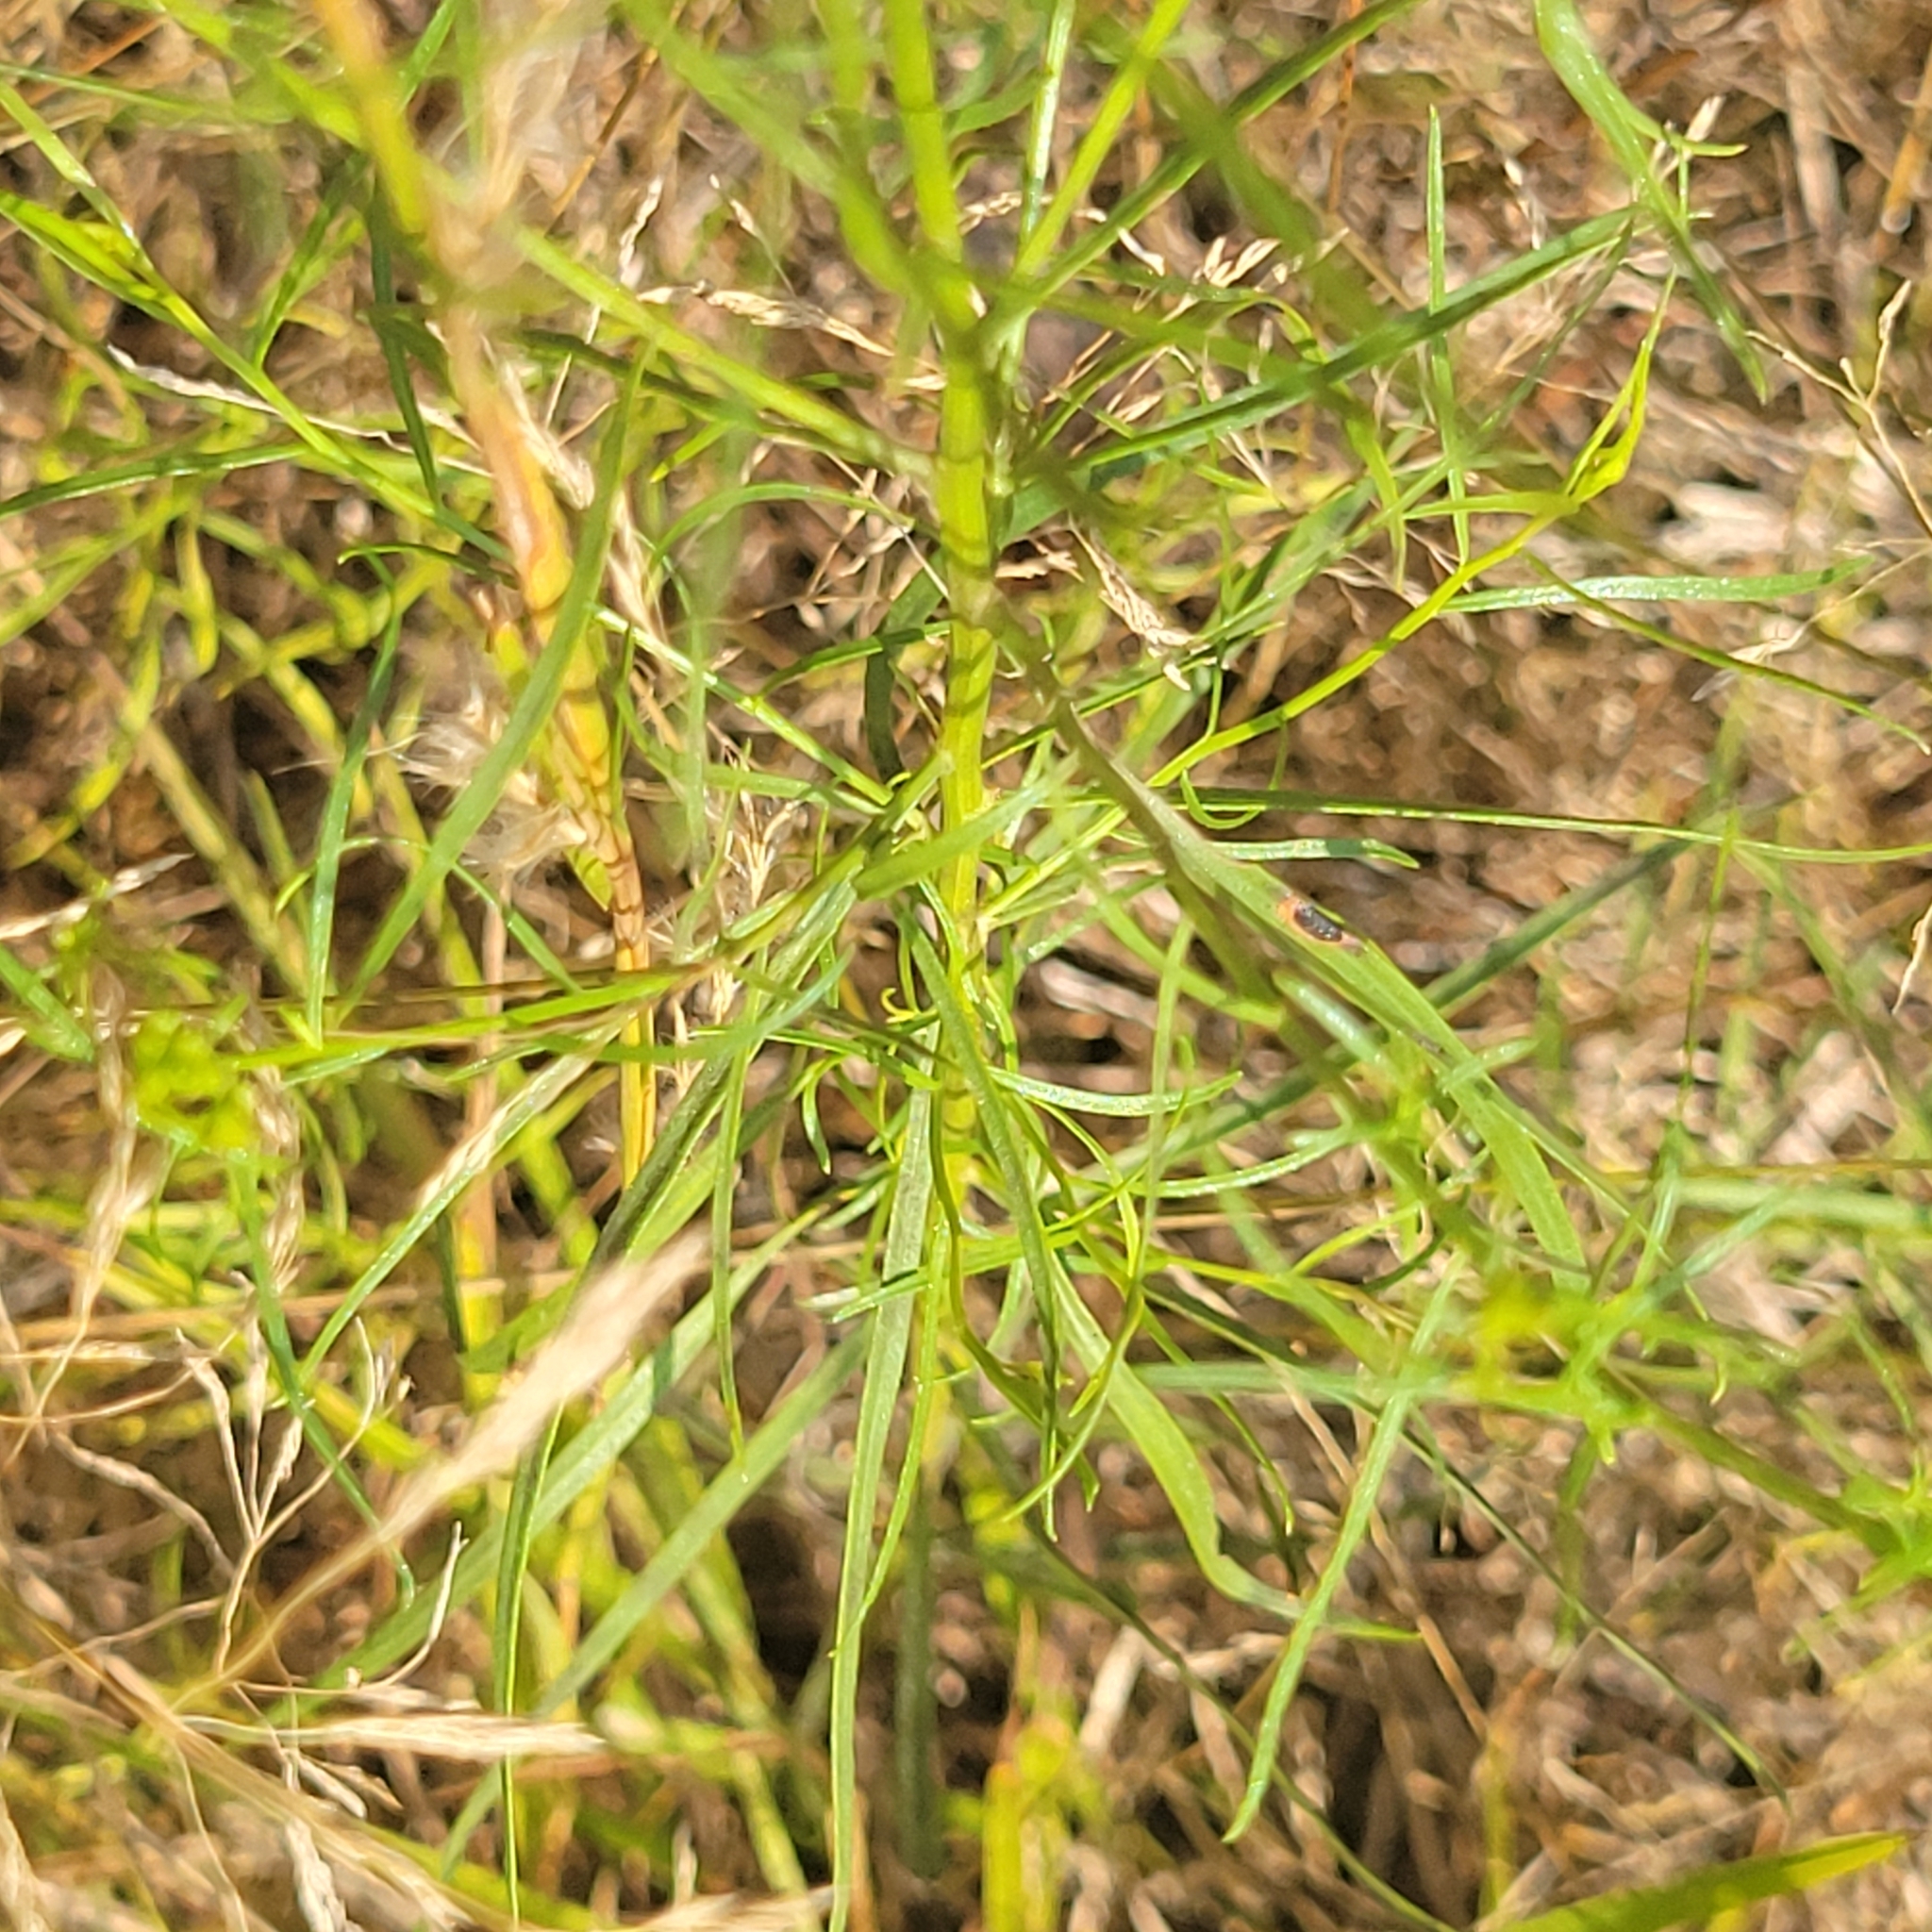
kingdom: Plantae
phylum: Tracheophyta
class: Magnoliopsida
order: Asterales
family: Asteraceae
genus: Euthamia
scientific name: Euthamia caroliniana
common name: Coastal plain goldentop
